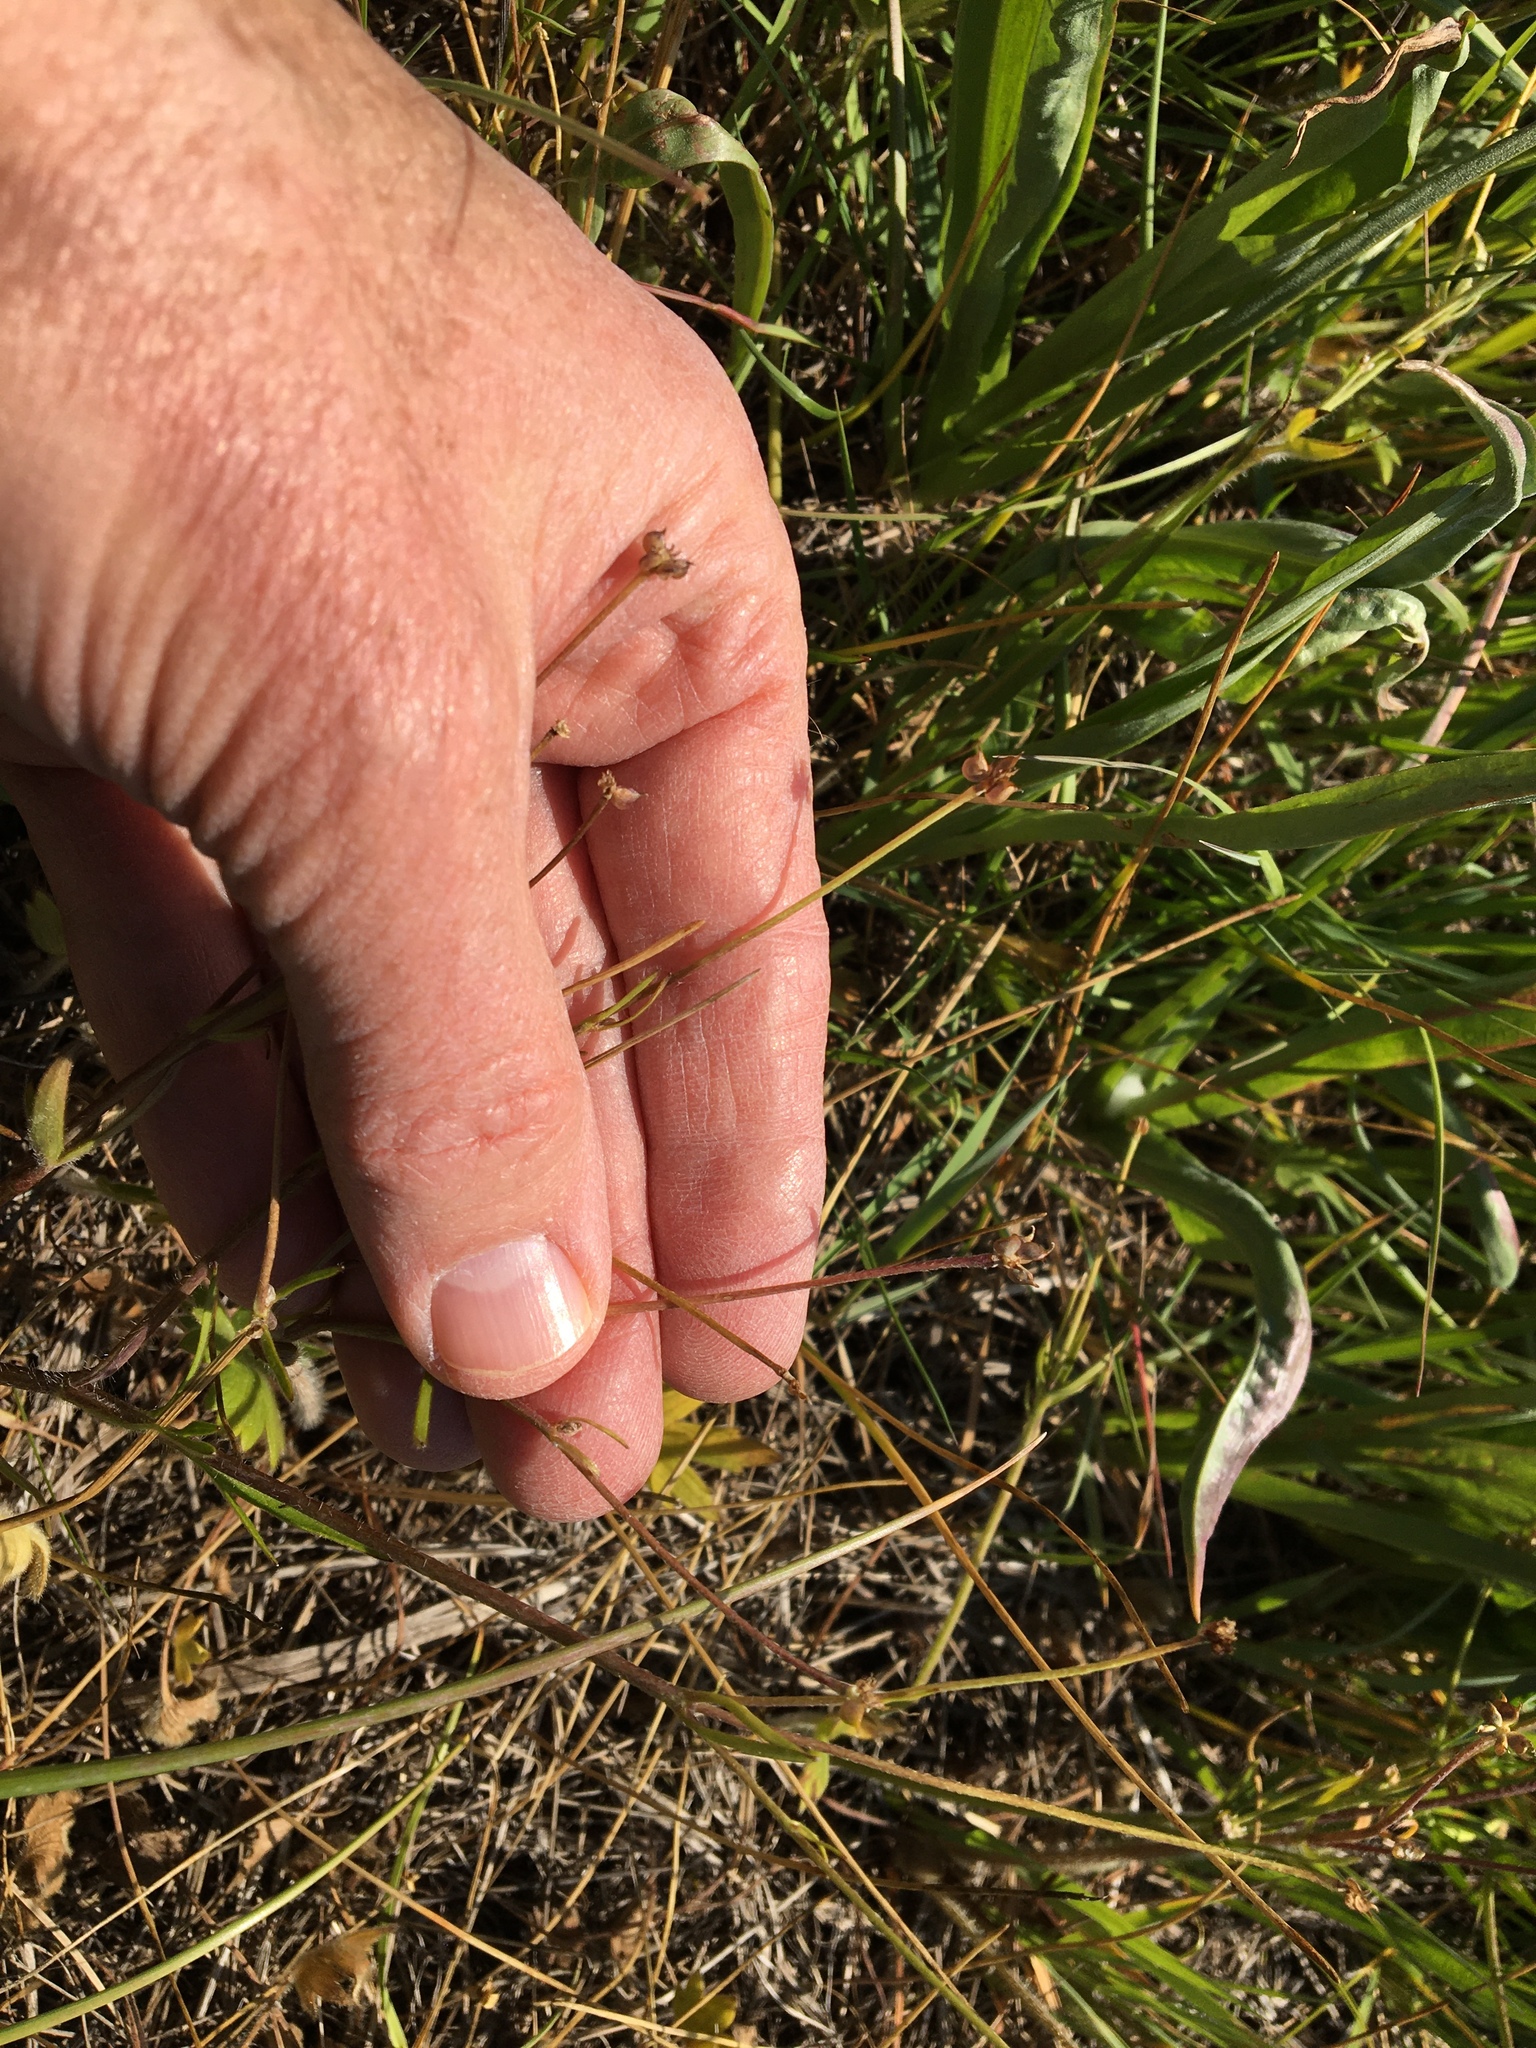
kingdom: Plantae
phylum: Tracheophyta
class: Magnoliopsida
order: Ranunculales
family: Ranunculaceae
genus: Ranunculus
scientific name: Ranunculus occidentalis
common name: Western buttercup
